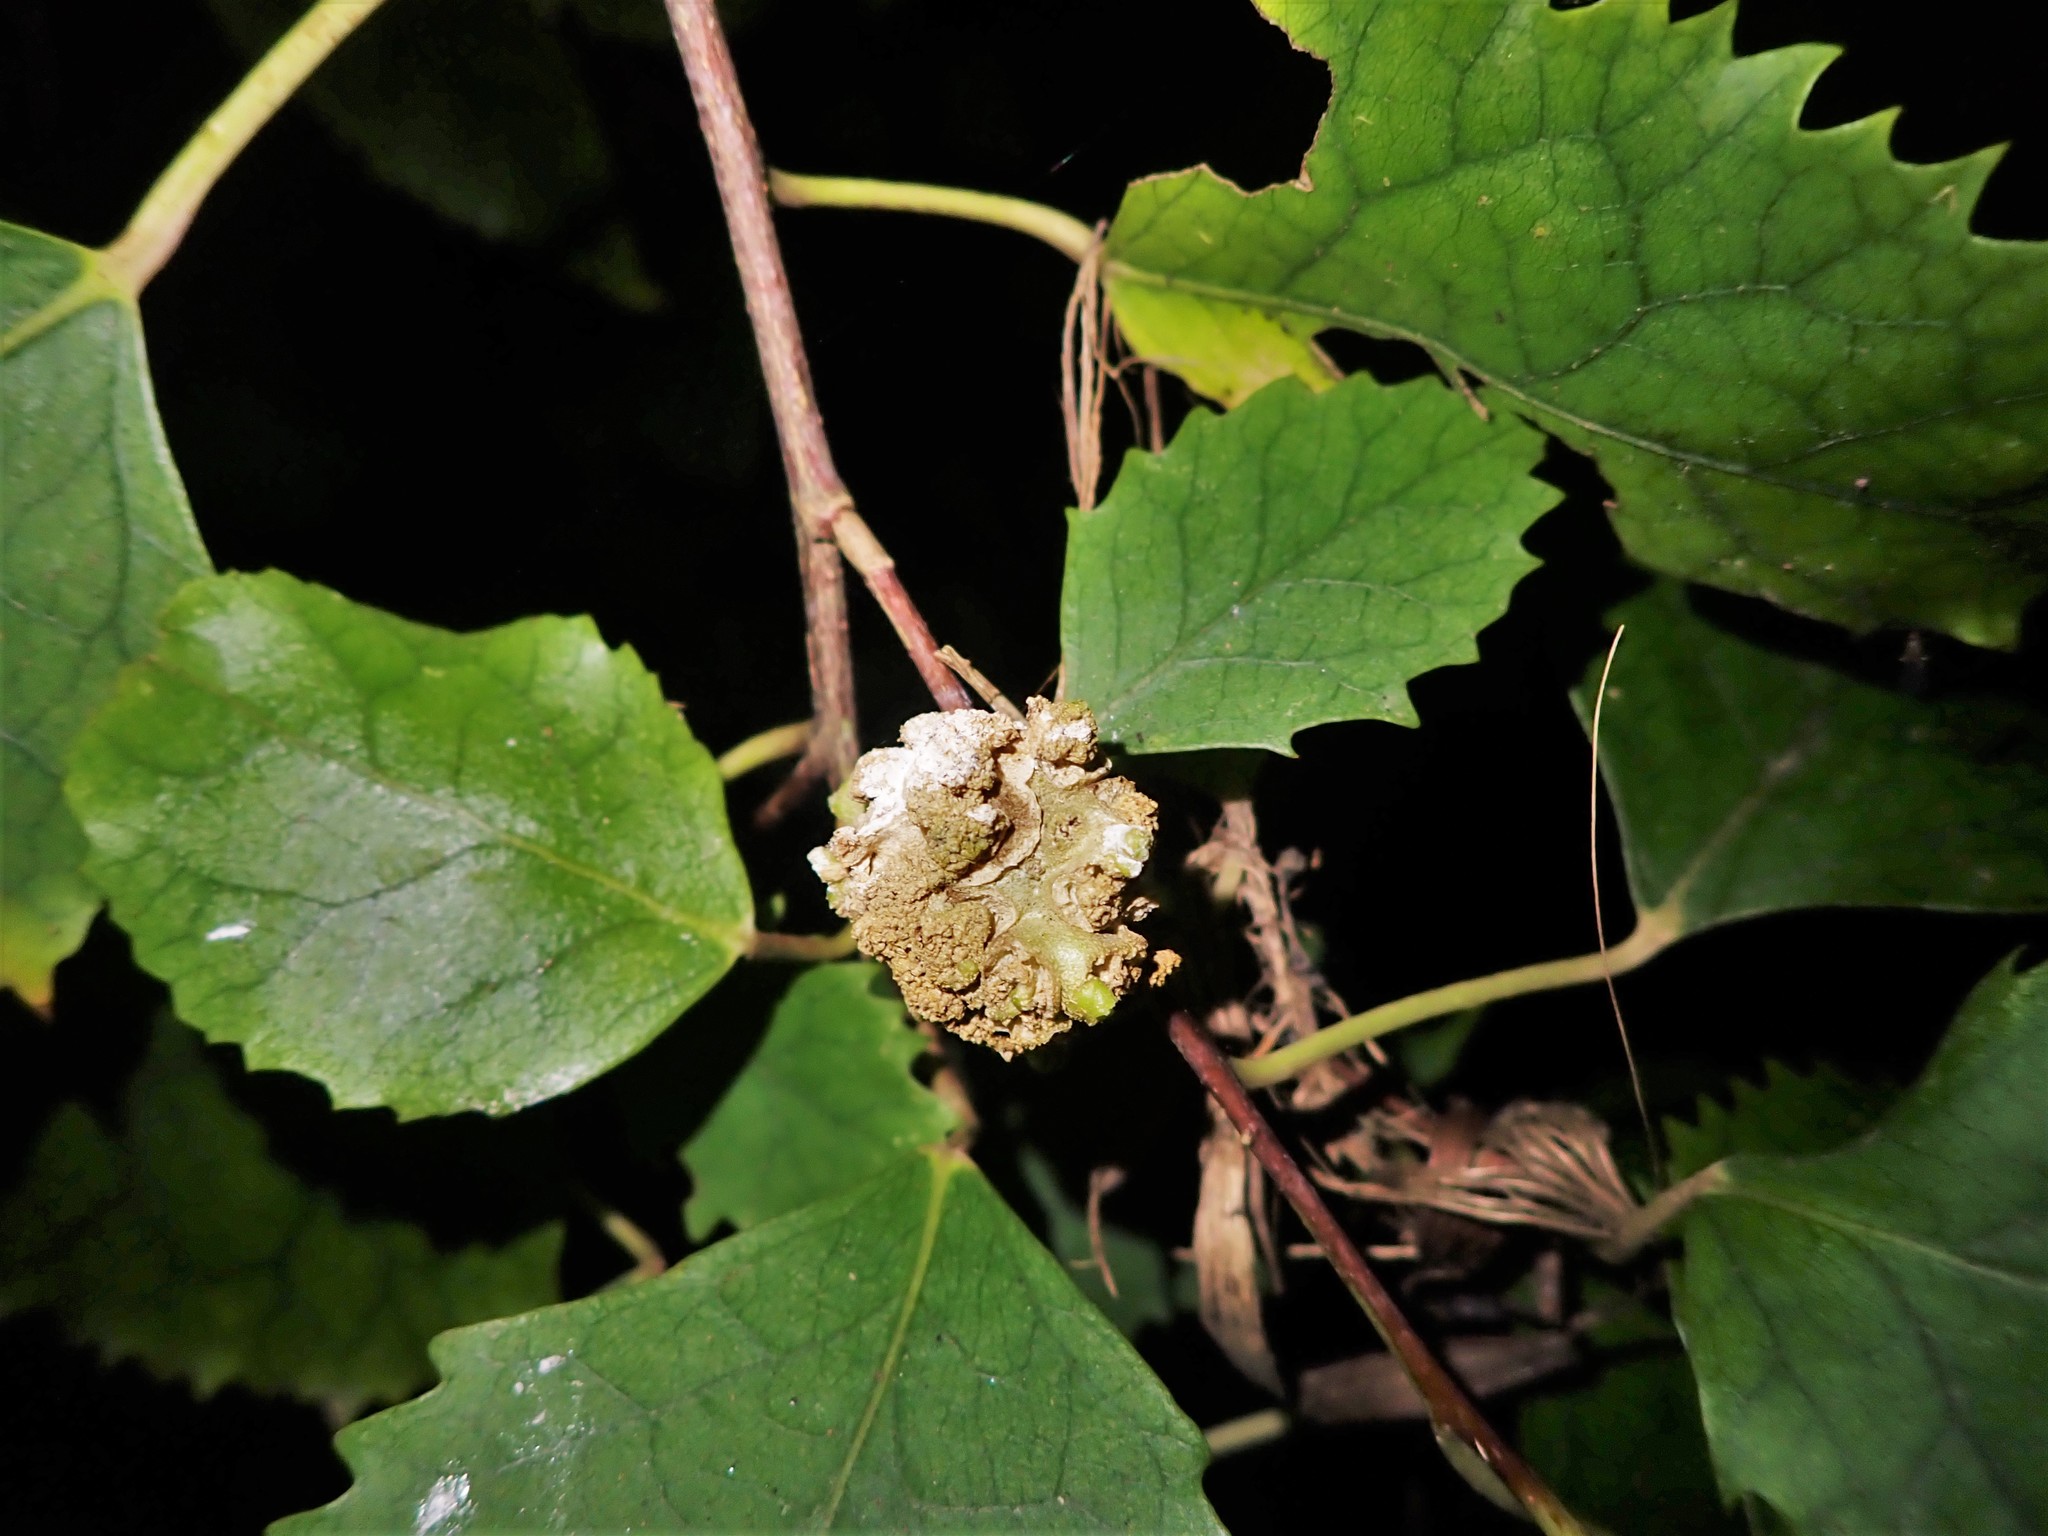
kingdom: Animalia
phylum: Arthropoda
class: Arachnida
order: Trombidiformes
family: Eriophyidae
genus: Eriophyes
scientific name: Eriophyes hoheriae
